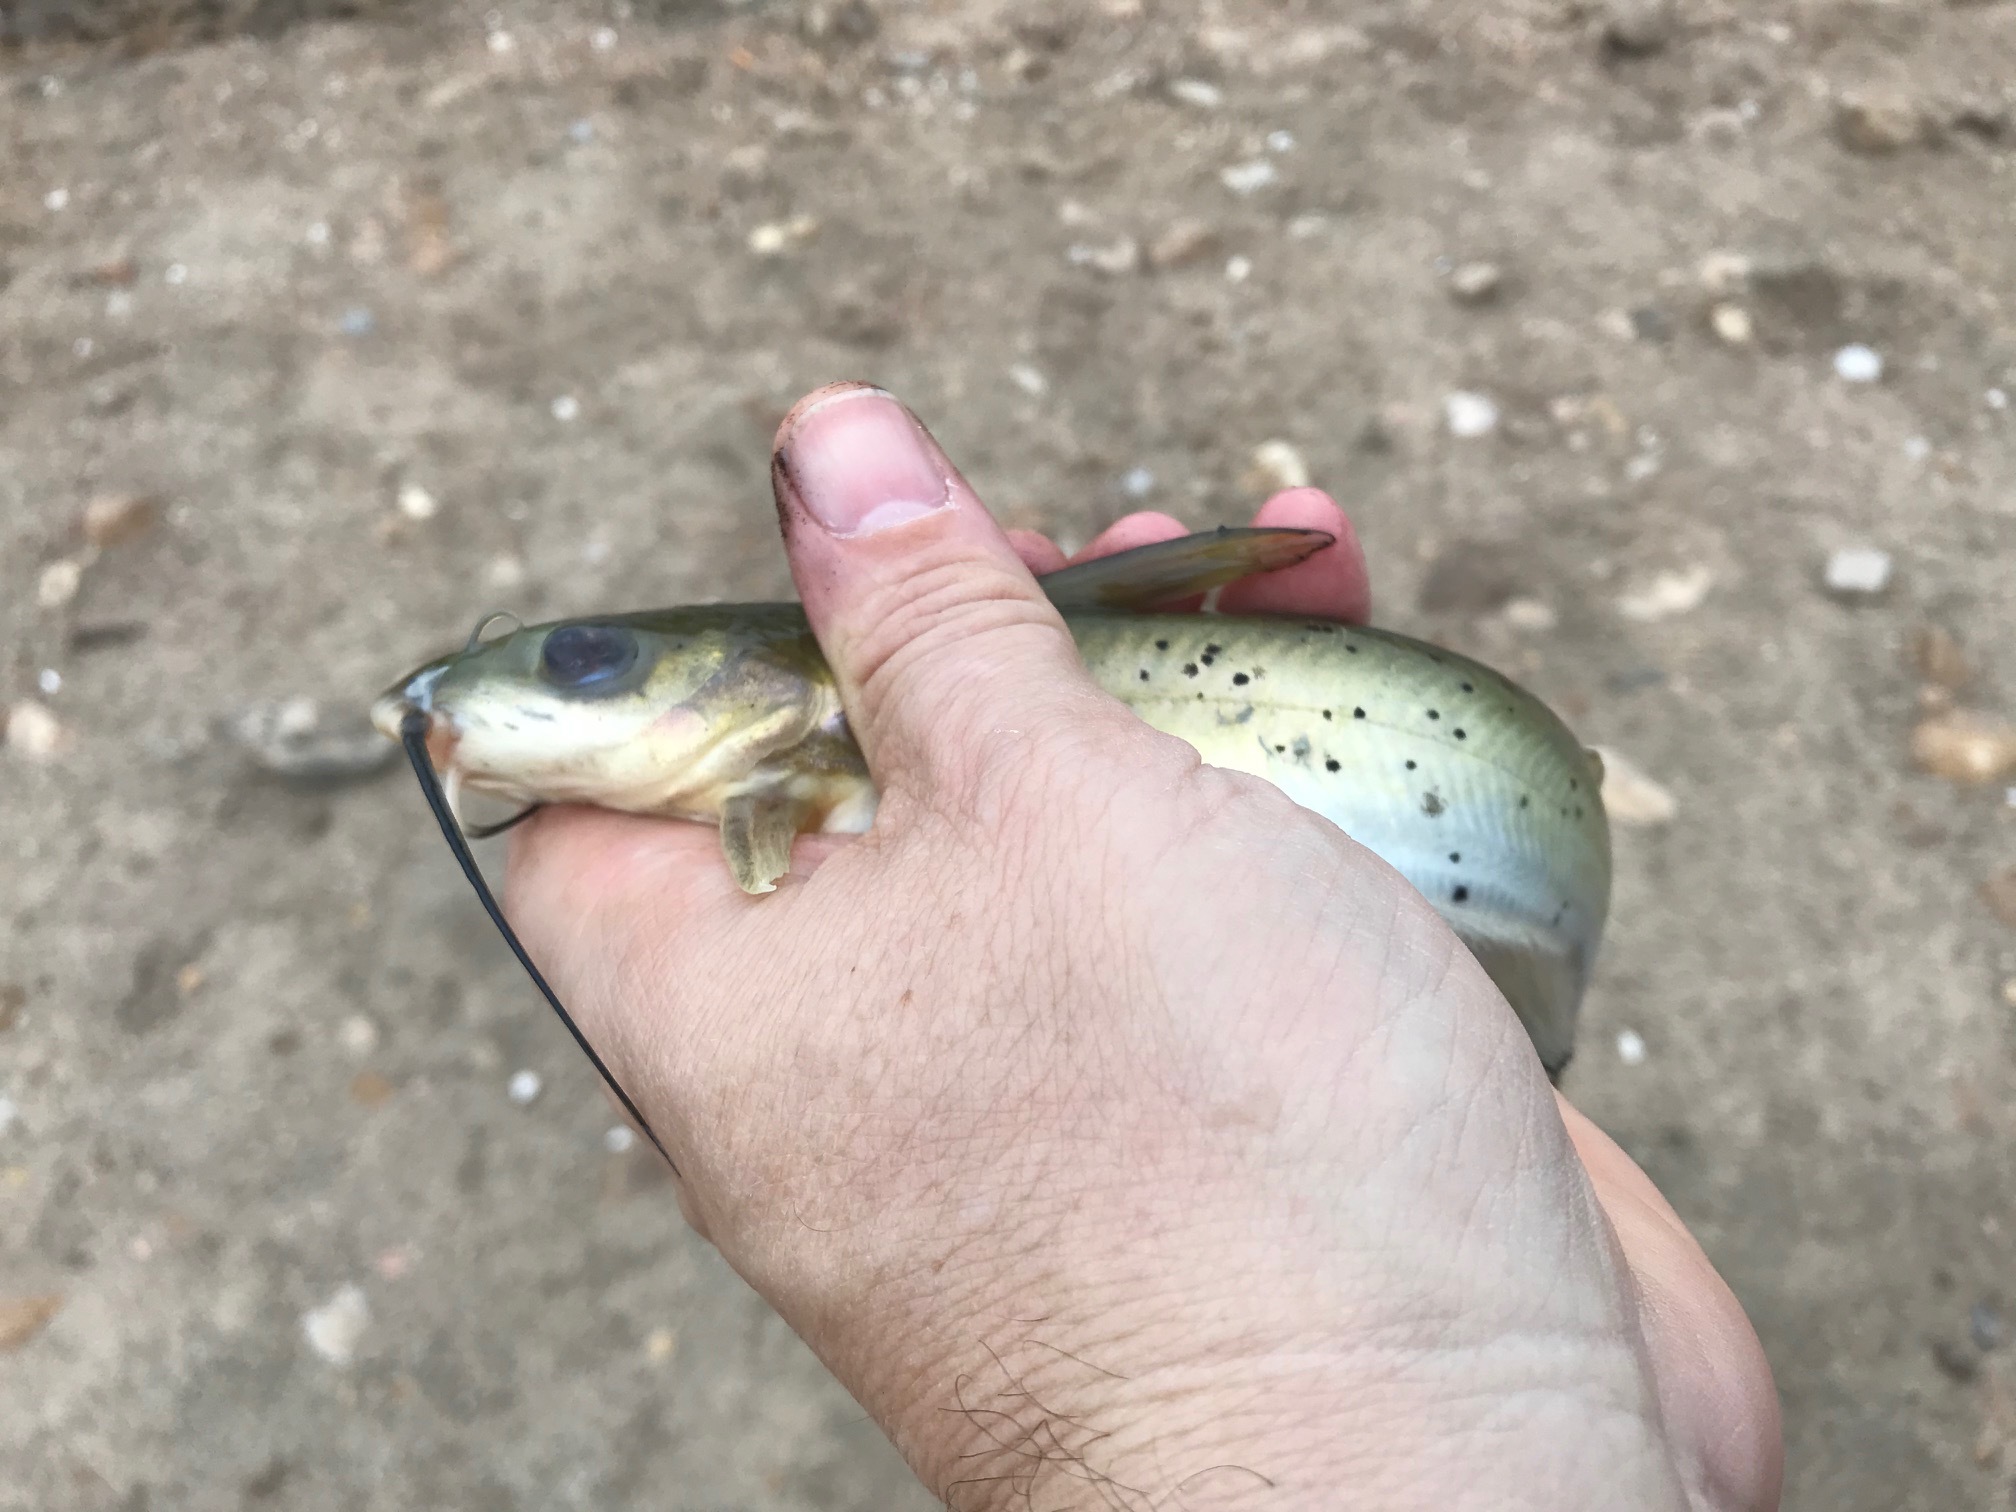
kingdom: Animalia
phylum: Chordata
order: Siluriformes
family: Ictaluridae
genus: Ictalurus
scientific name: Ictalurus punctatus
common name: Channel catfish
